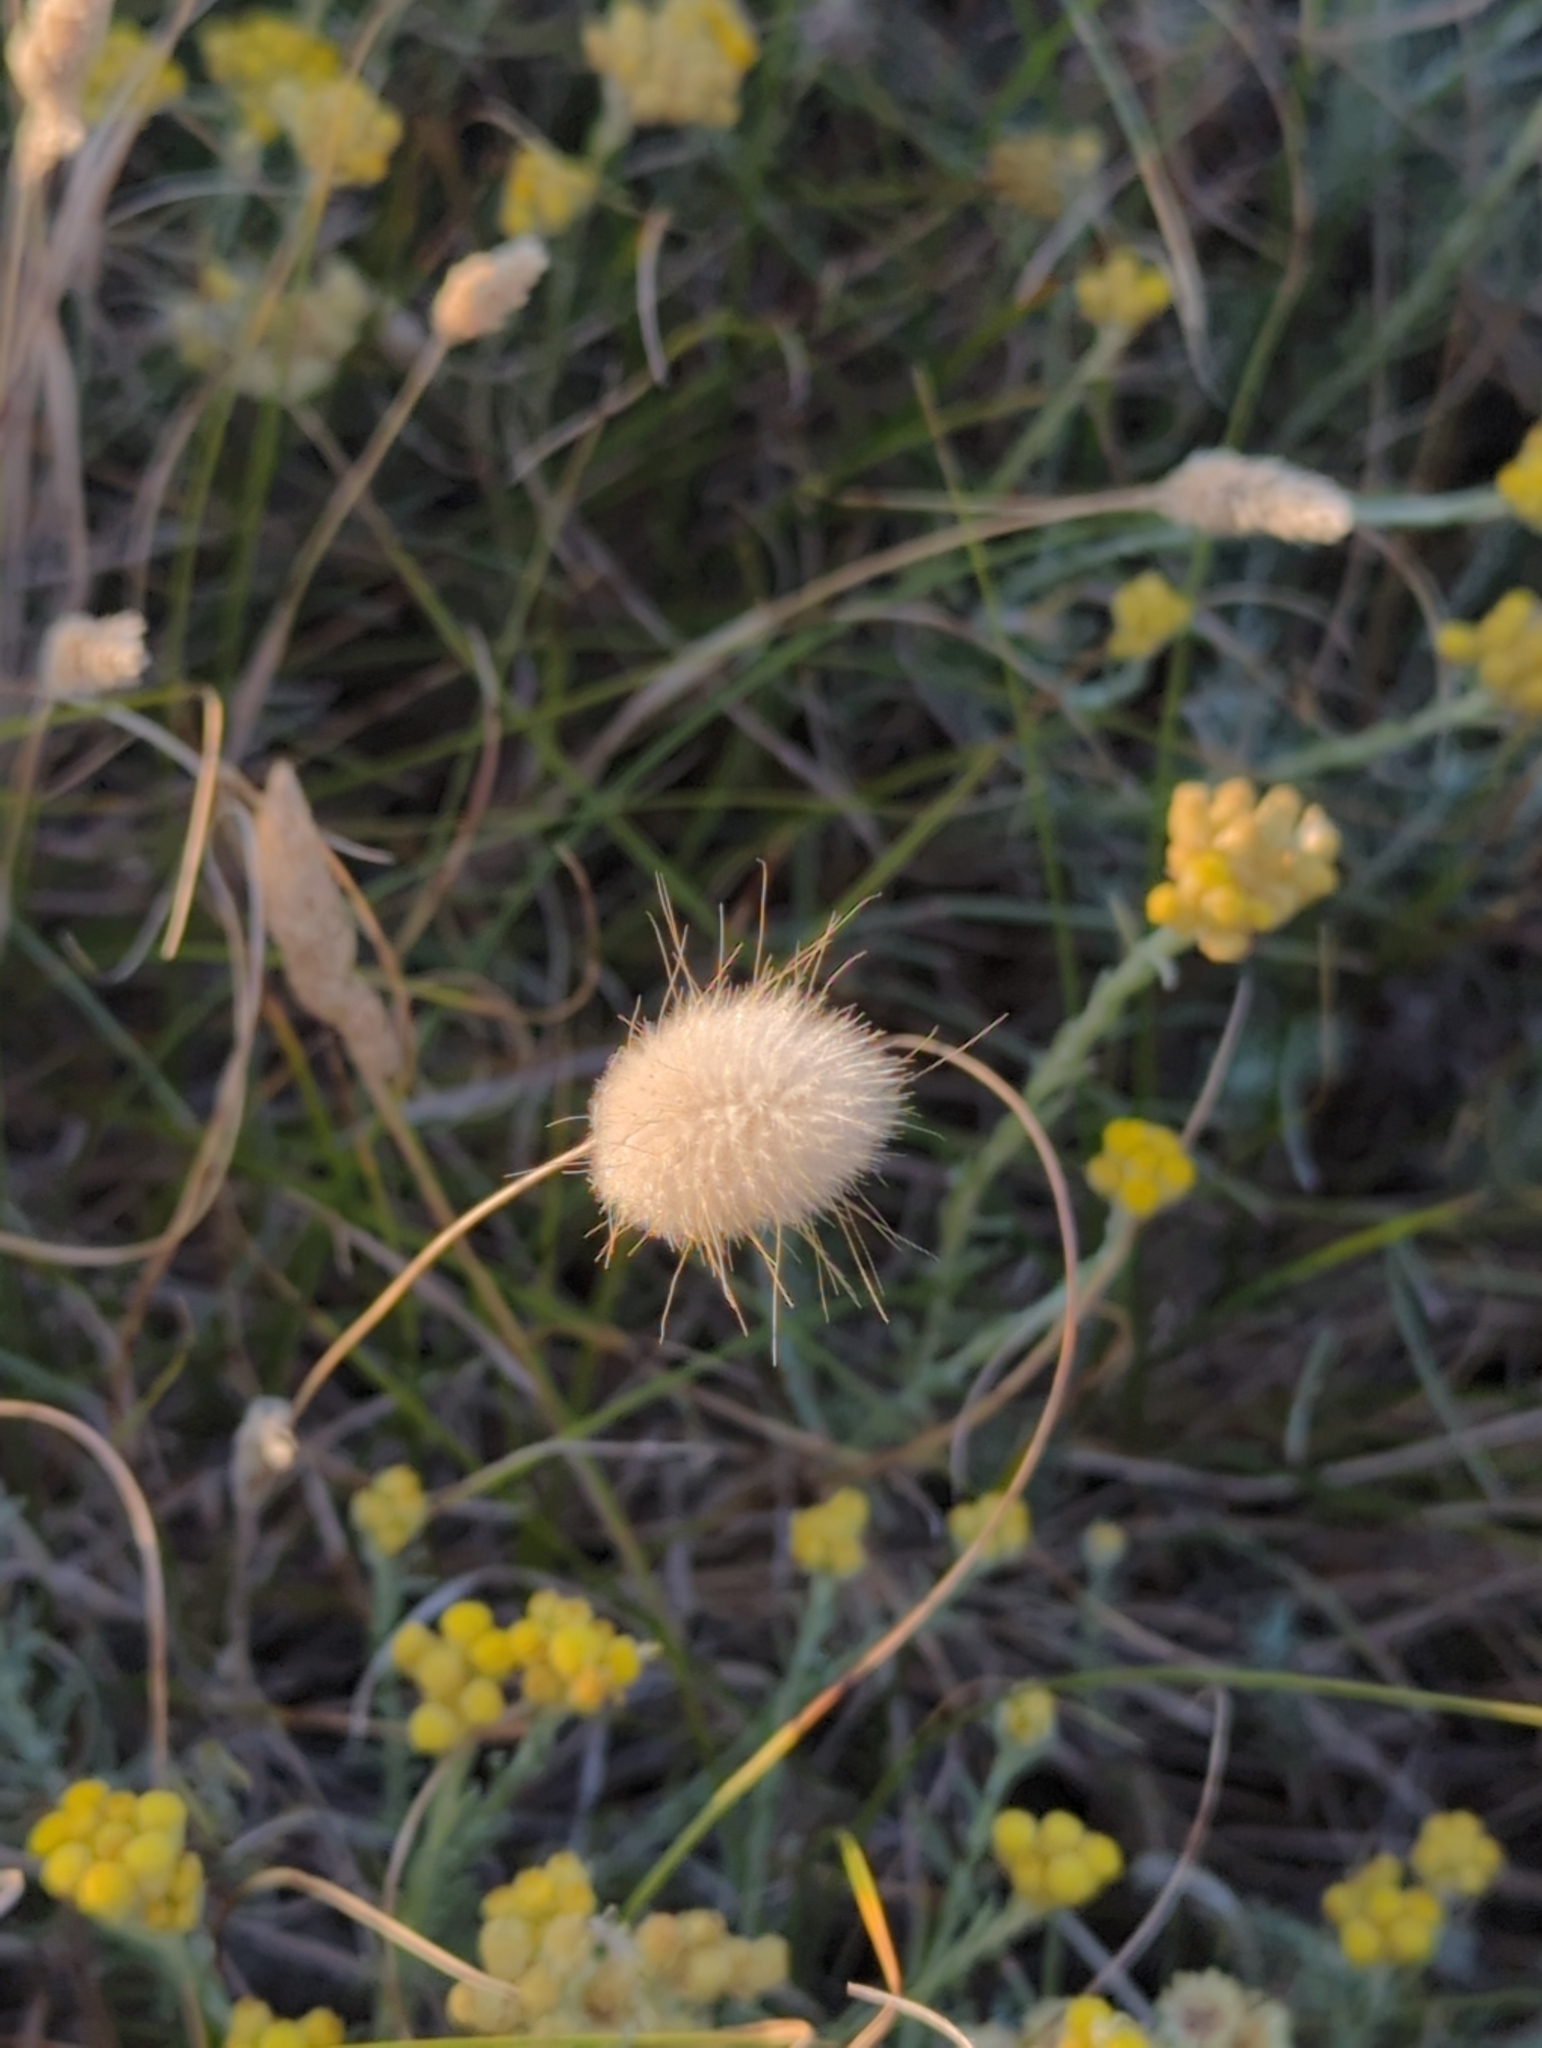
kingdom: Plantae
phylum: Tracheophyta
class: Liliopsida
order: Poales
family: Poaceae
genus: Lagurus
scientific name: Lagurus ovatus
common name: Hare's-tail
